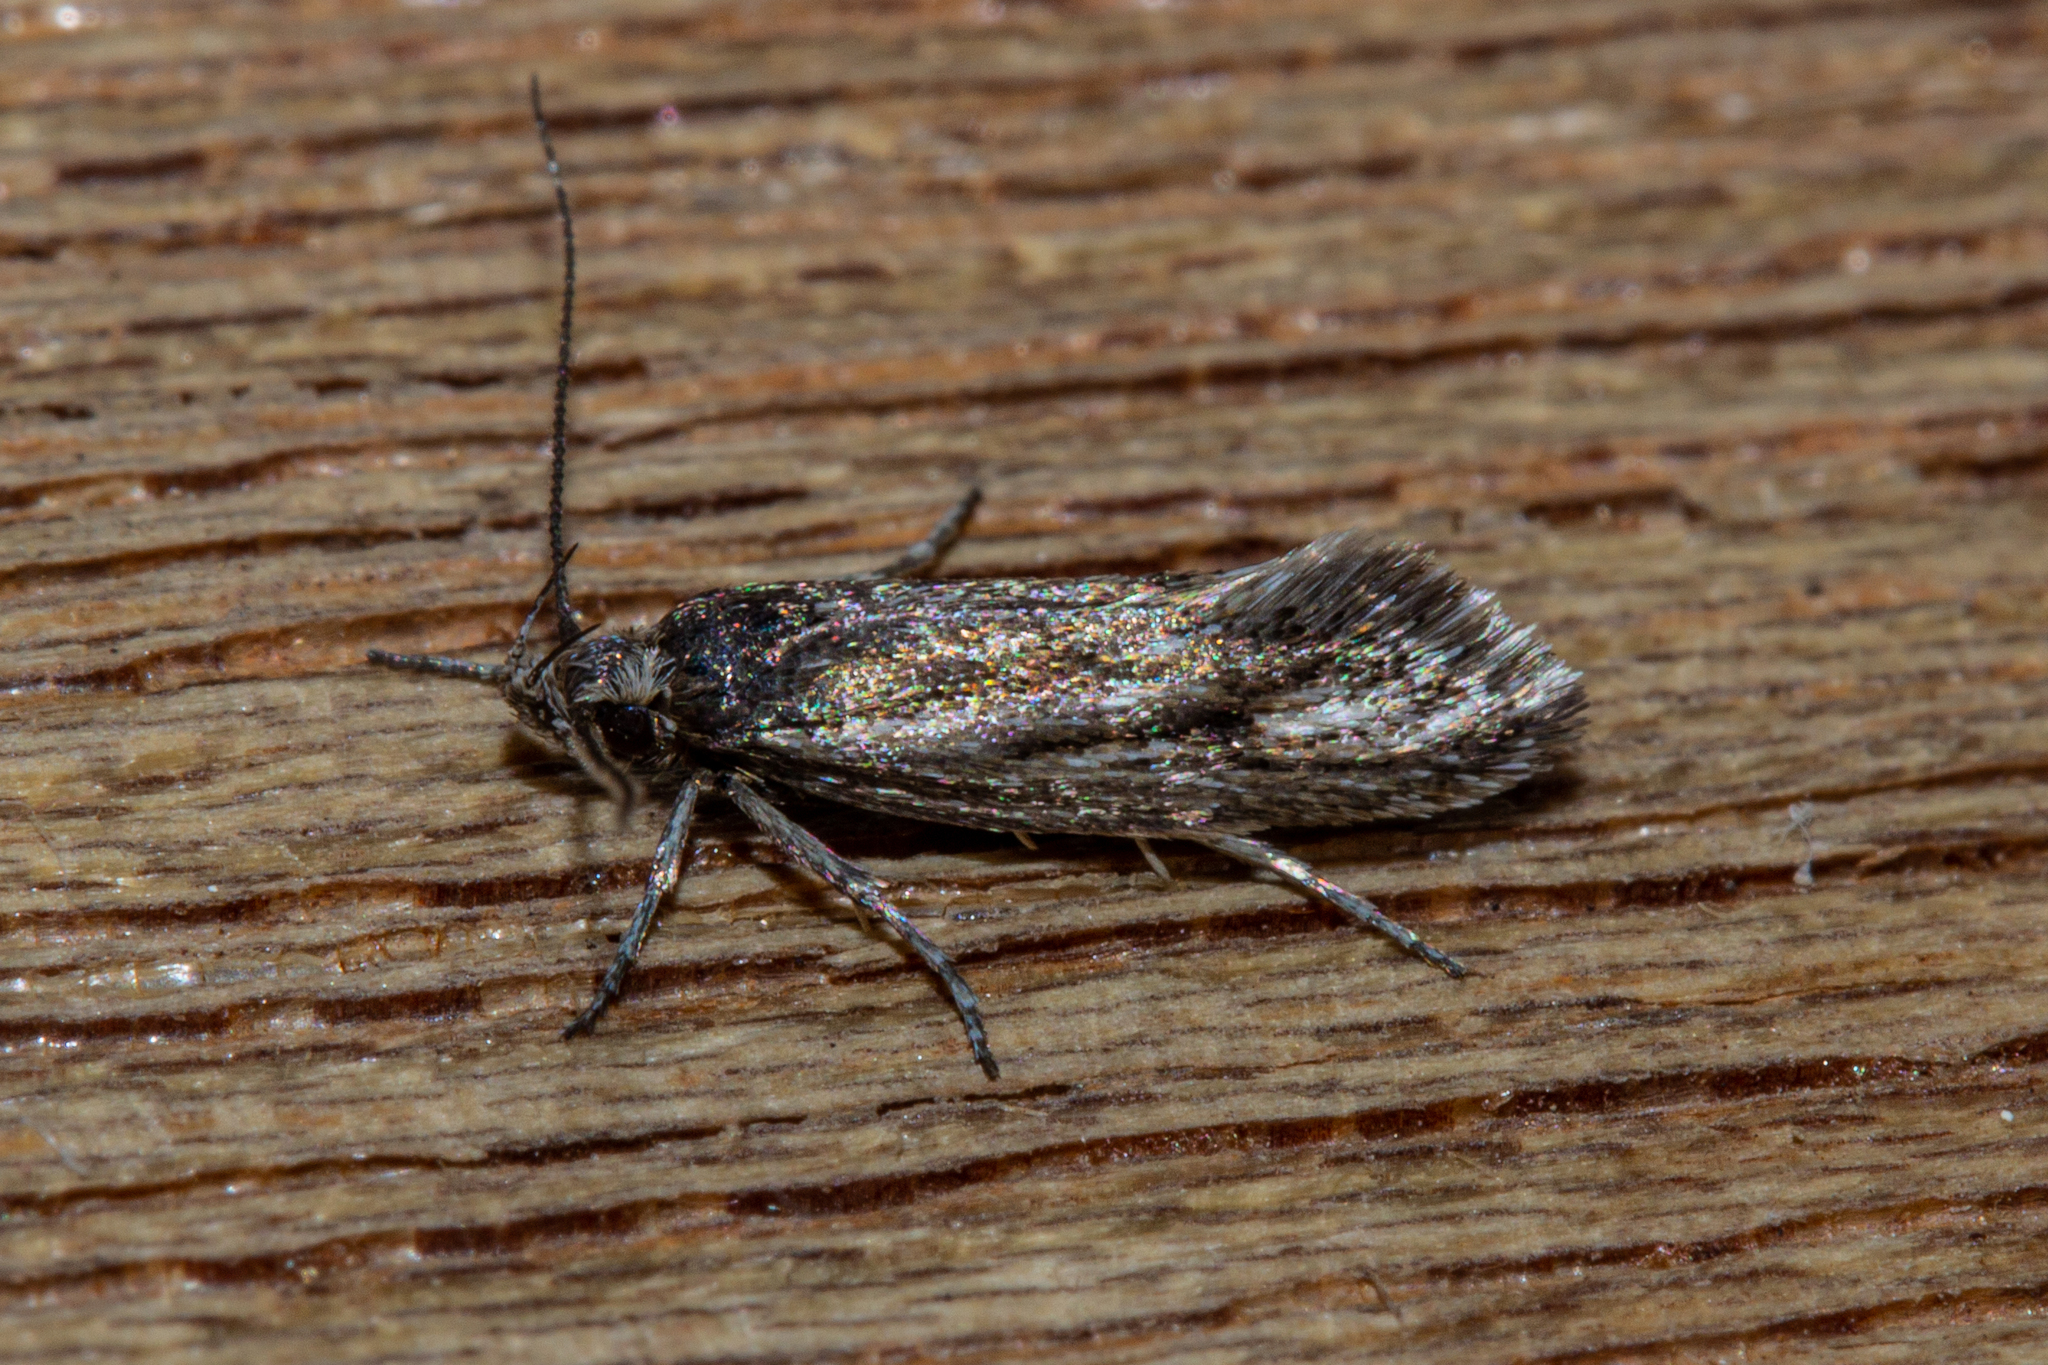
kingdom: Animalia
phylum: Arthropoda
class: Insecta
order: Lepidoptera
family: Oecophoridae
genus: Prepalla
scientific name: Prepalla
